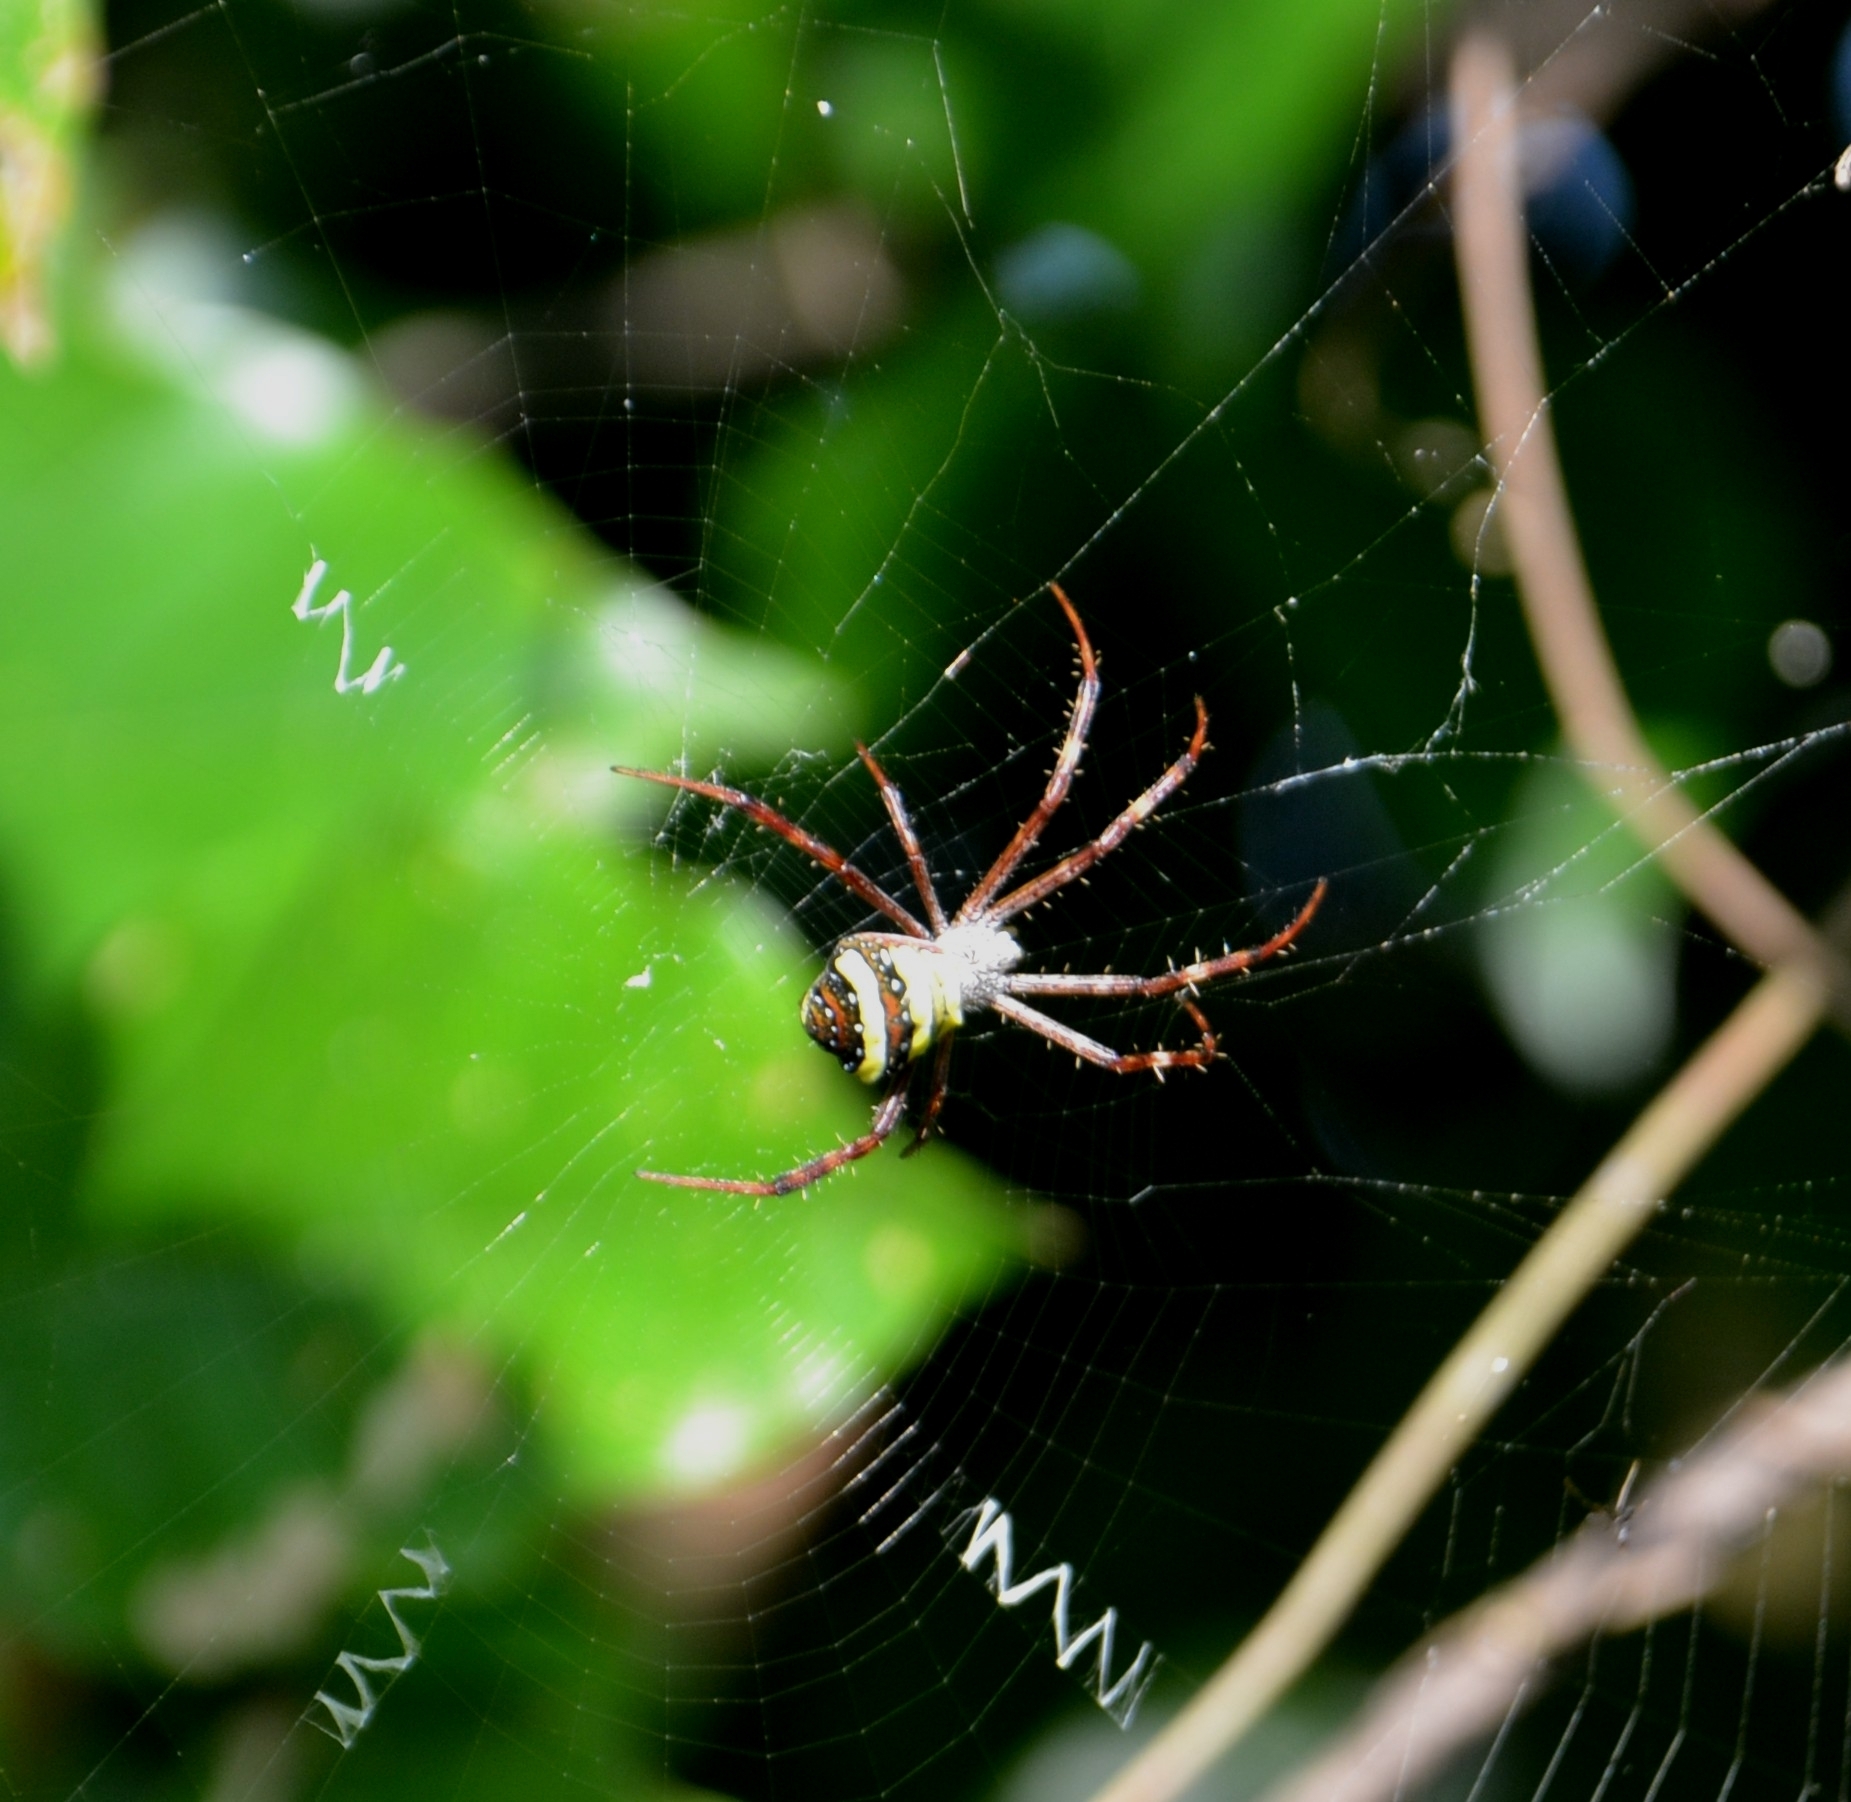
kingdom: Animalia
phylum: Arthropoda
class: Arachnida
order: Araneae
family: Araneidae
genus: Argiope
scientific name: Argiope pulchella
